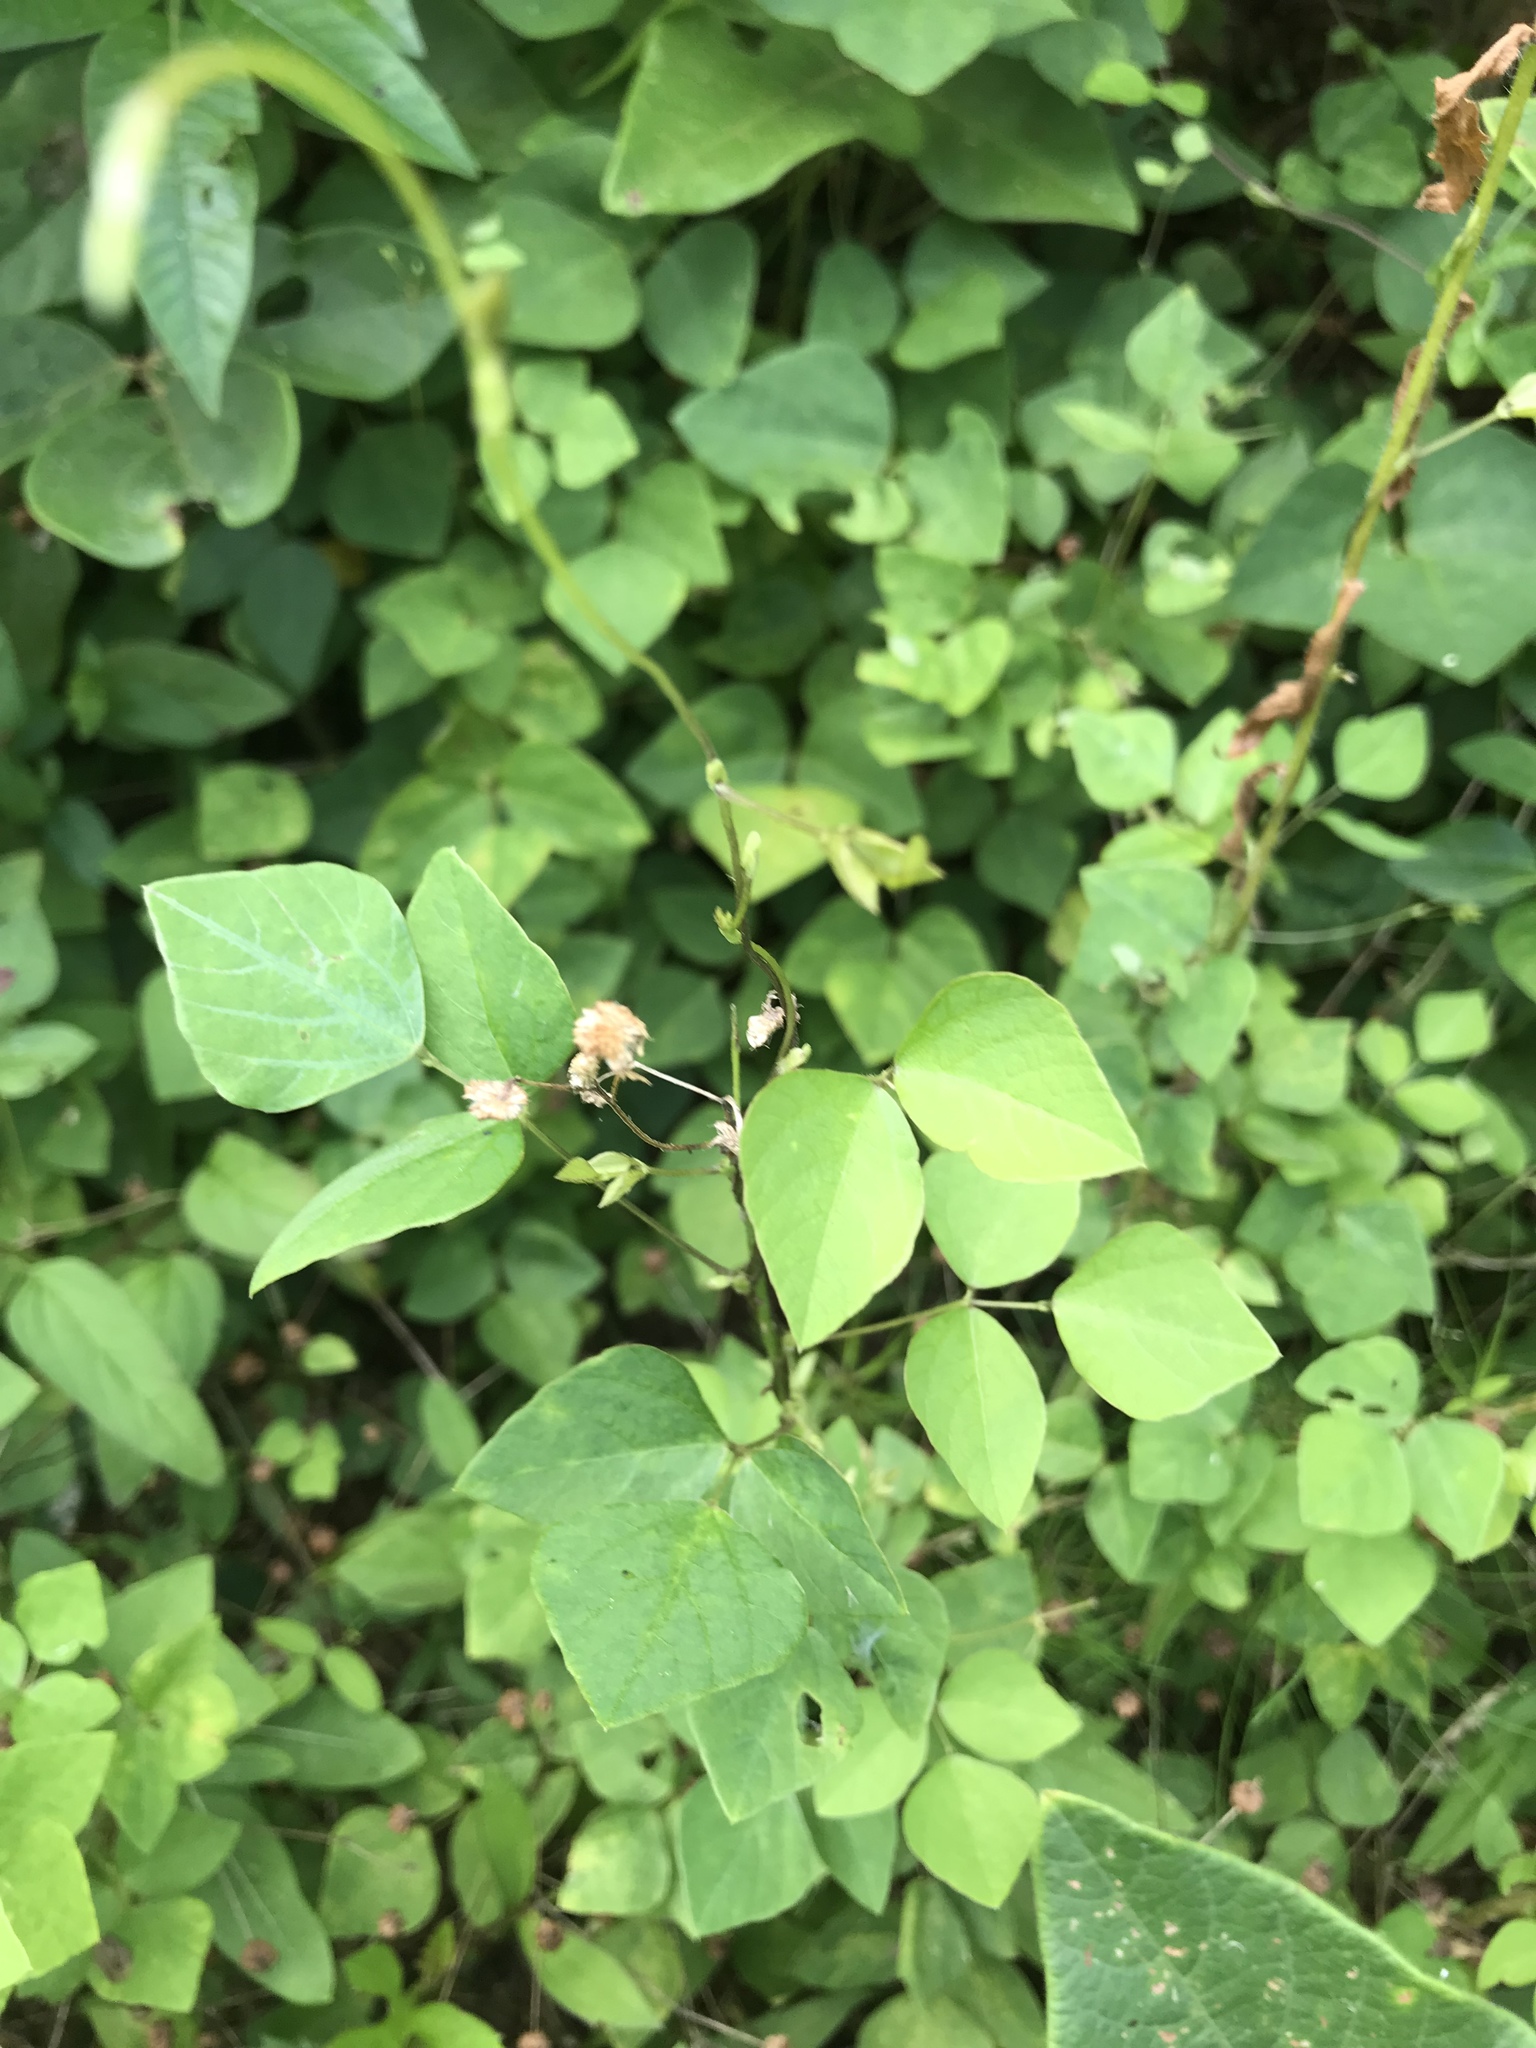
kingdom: Plantae
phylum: Tracheophyta
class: Magnoliopsida
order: Fabales
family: Fabaceae
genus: Amphicarpaea
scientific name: Amphicarpaea bracteata
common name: American hog peanut
